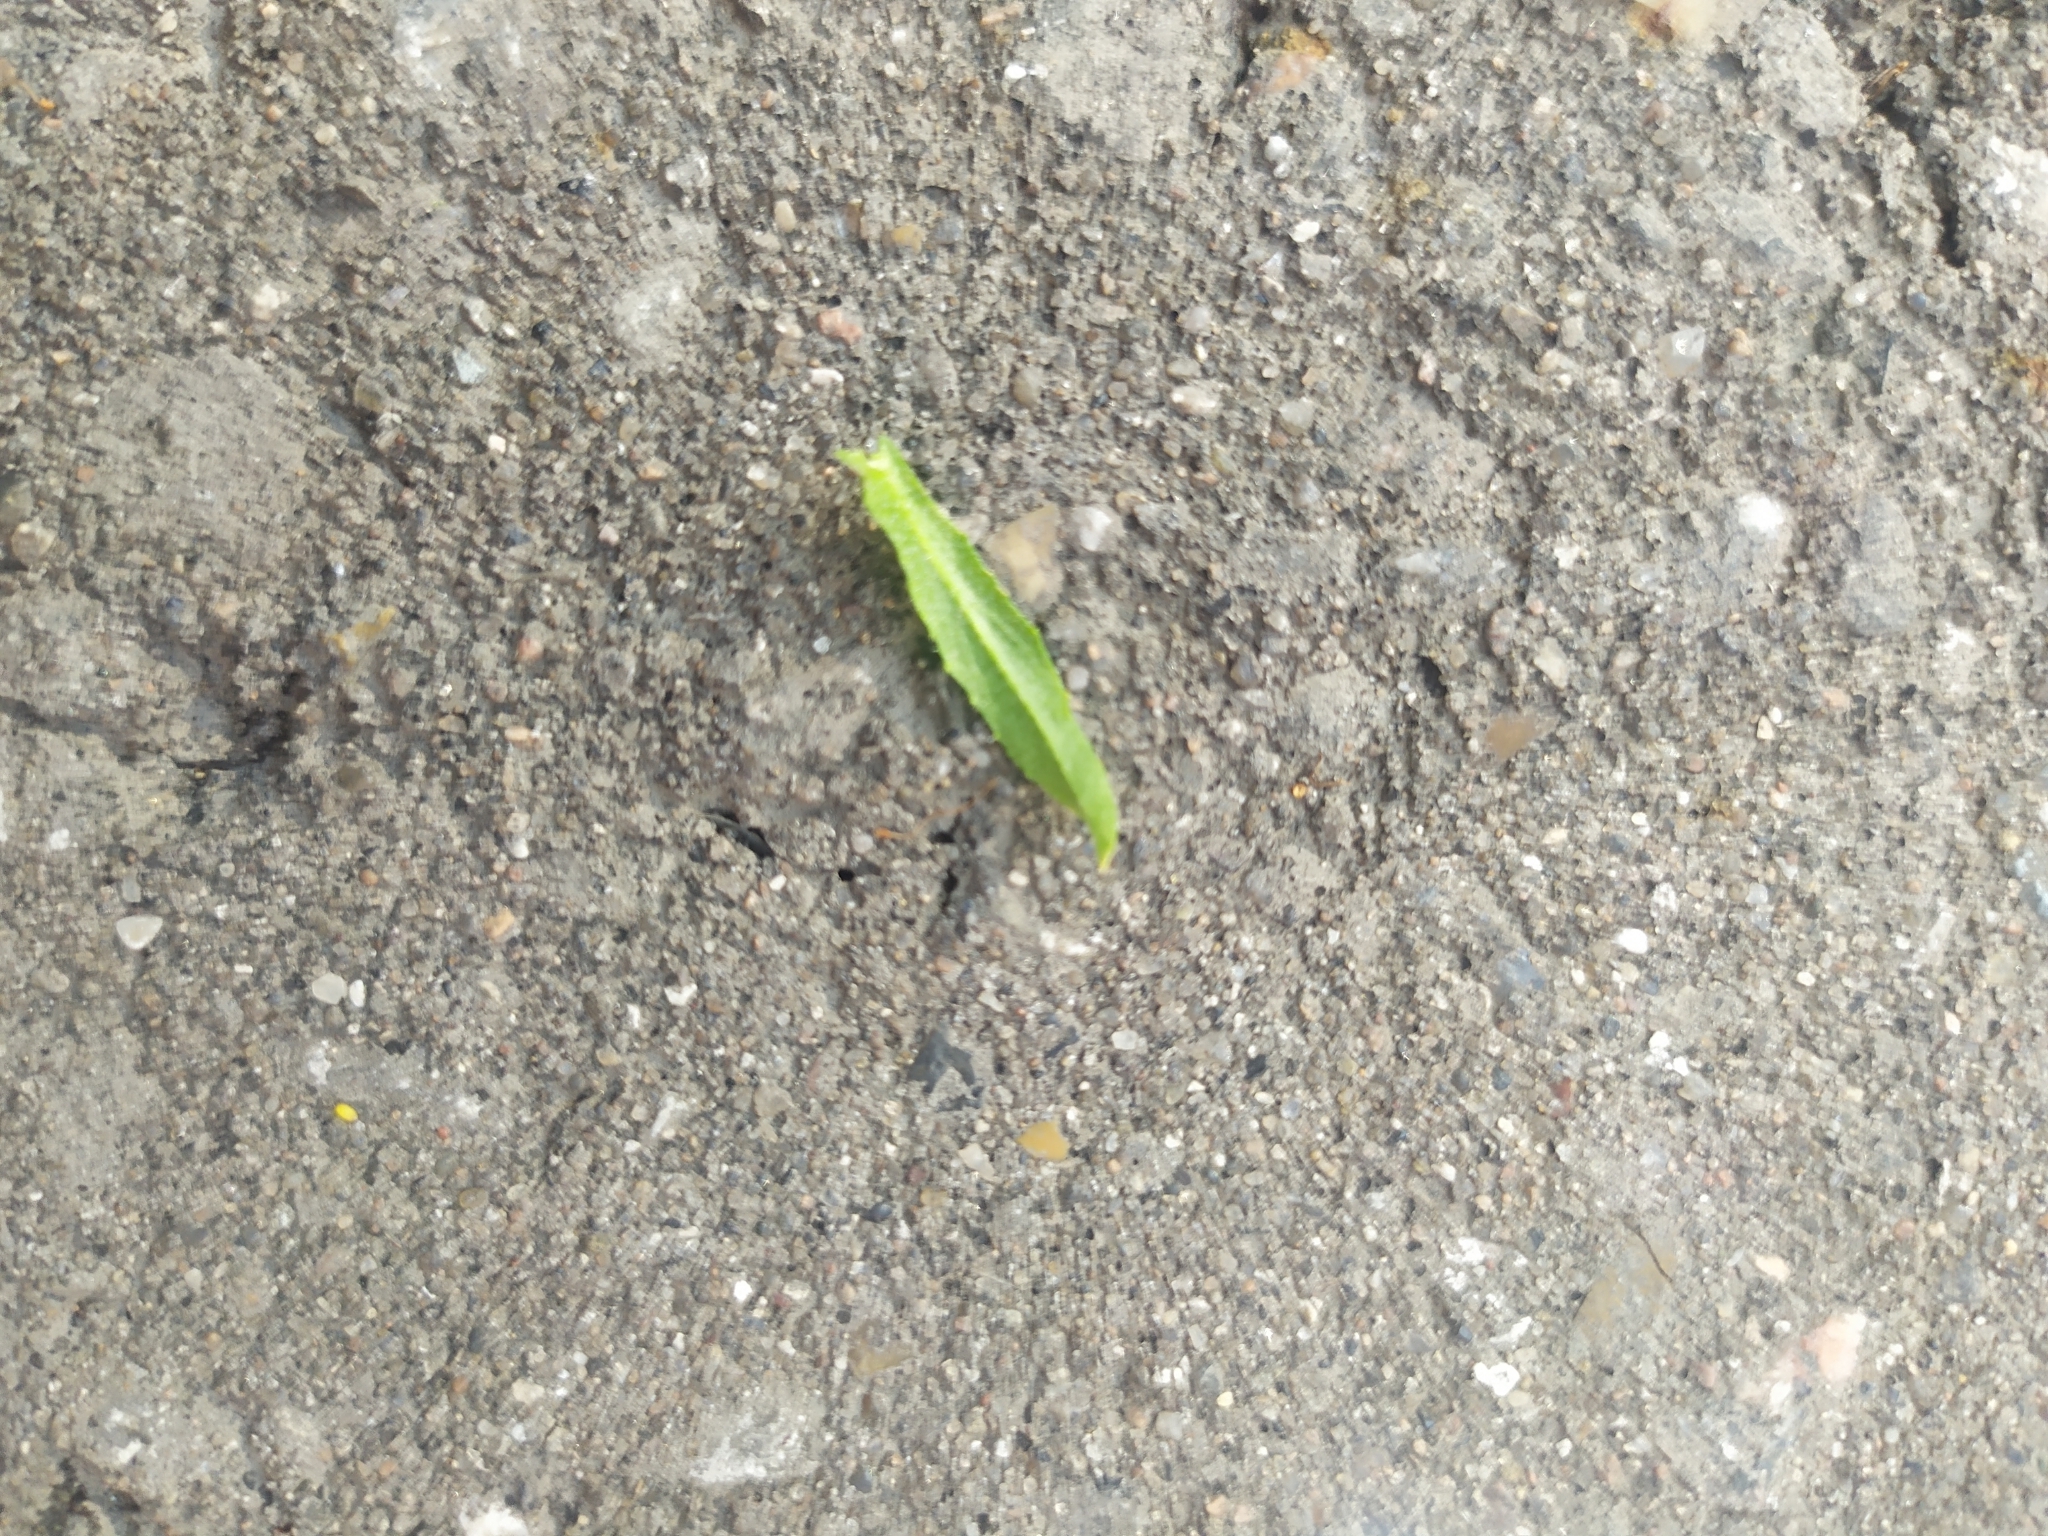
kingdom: Plantae
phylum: Tracheophyta
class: Magnoliopsida
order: Brassicales
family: Brassicaceae
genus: Capsella
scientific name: Capsella bursa-pastoris
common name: Shepherd's purse
